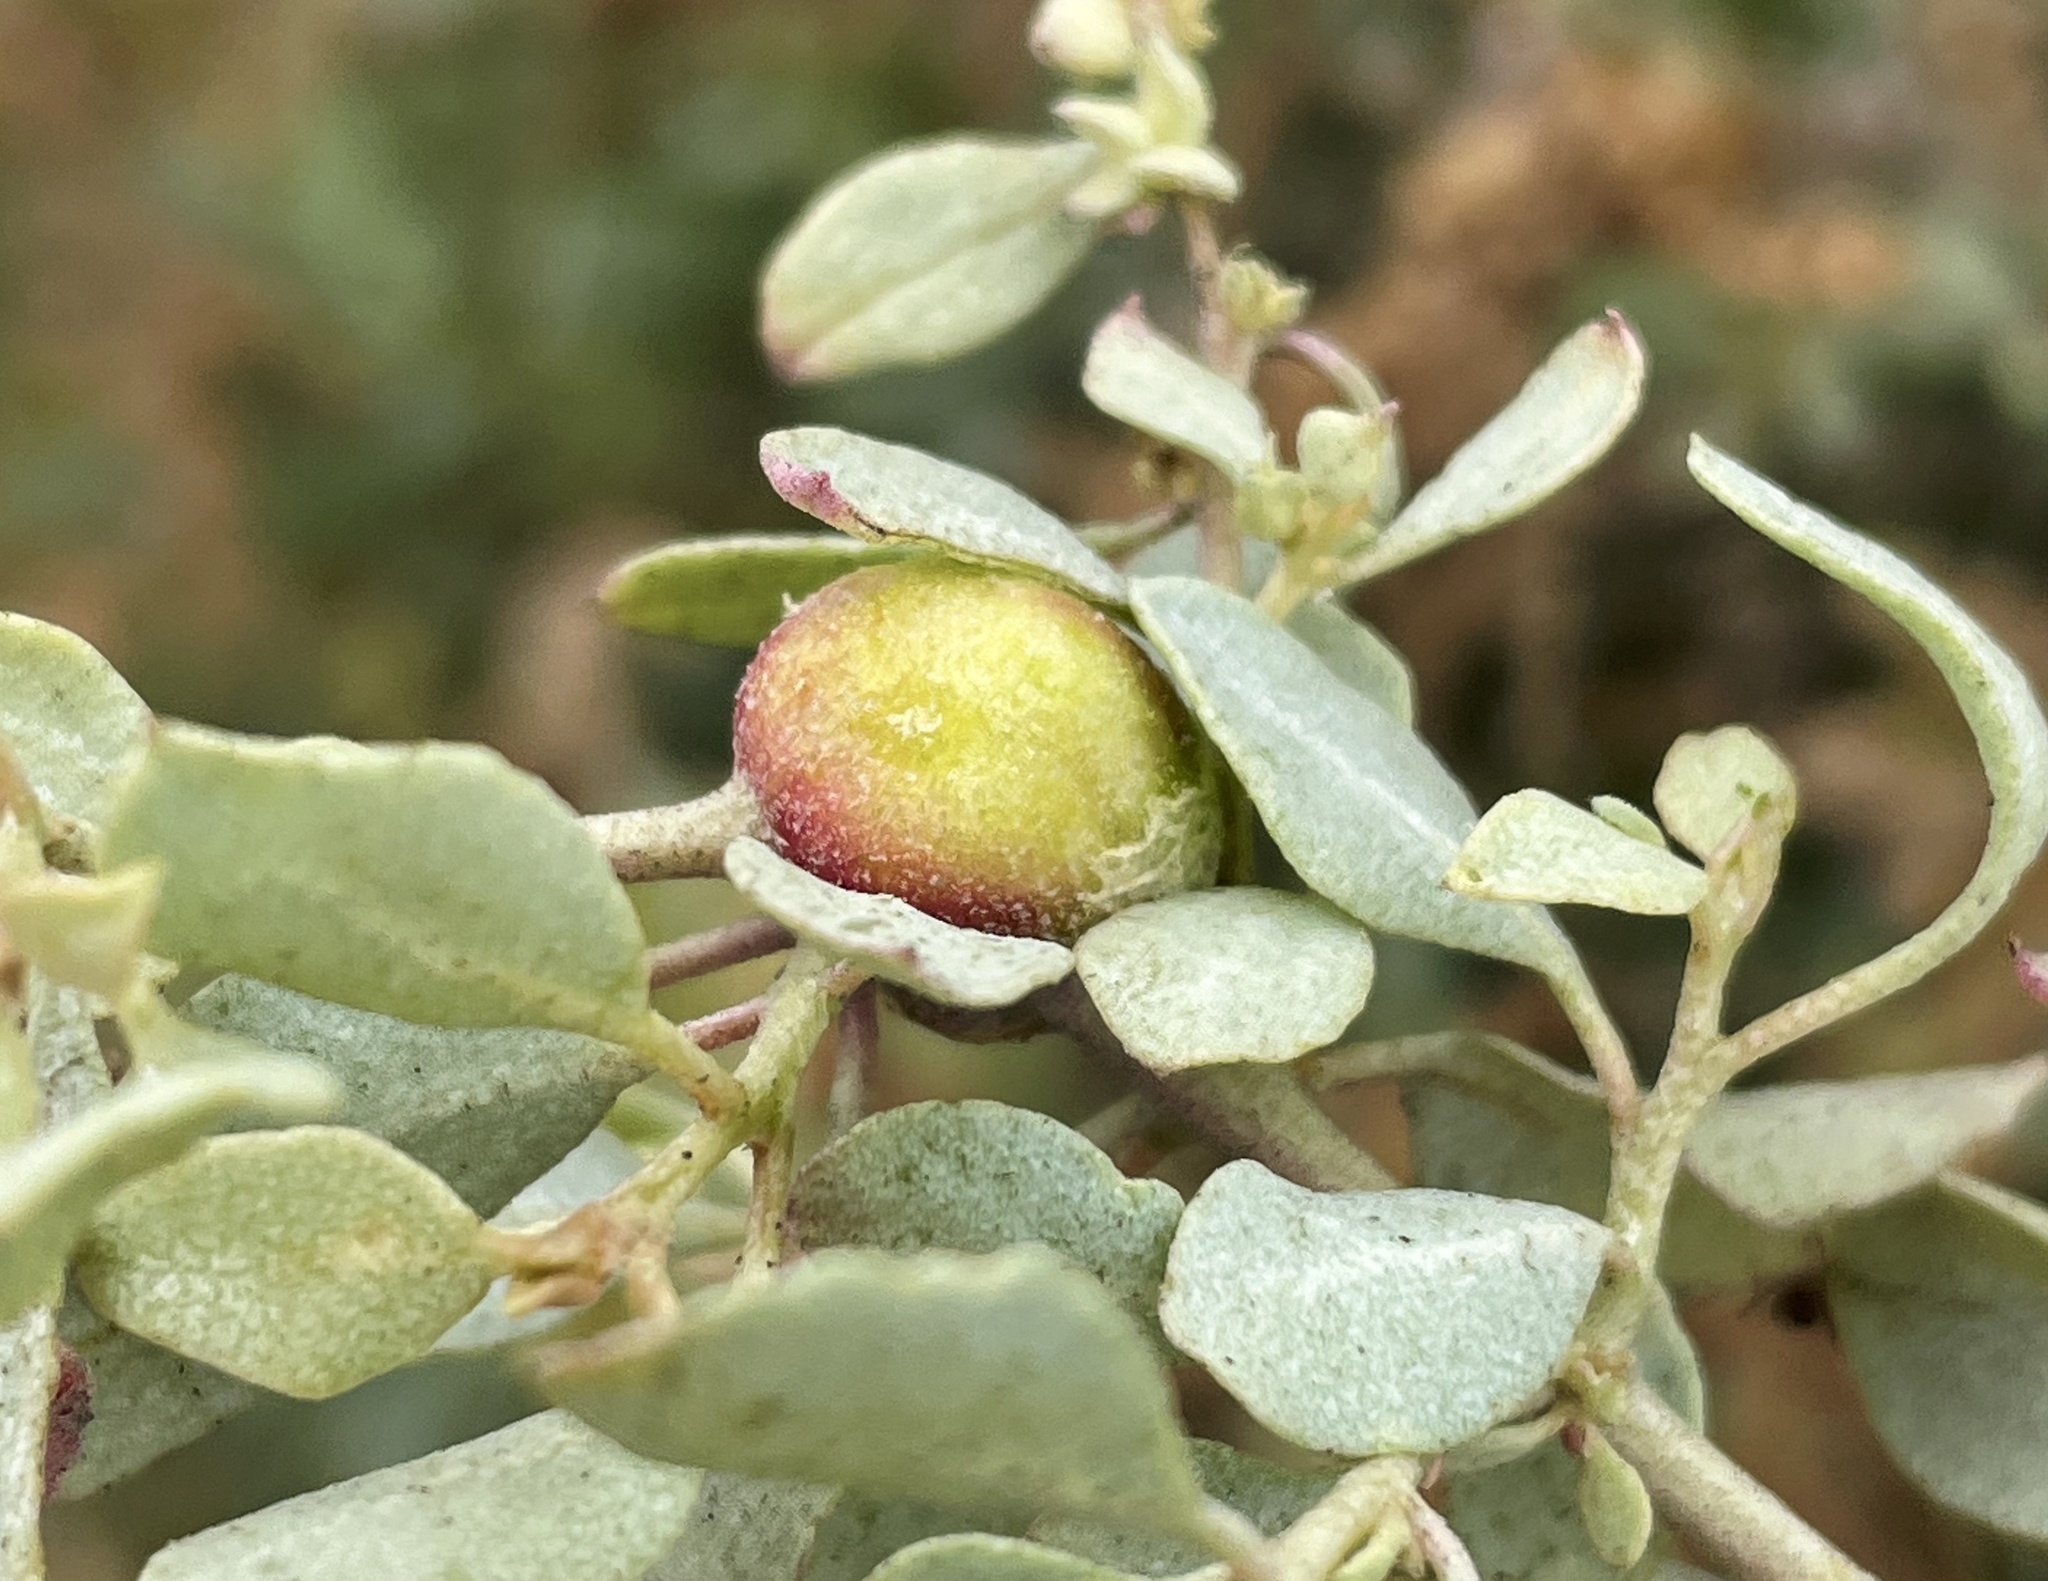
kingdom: Animalia
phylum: Arthropoda
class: Insecta
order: Diptera
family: Cecidomyiidae
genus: Asphondylia
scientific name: Asphondylia atriplicis
